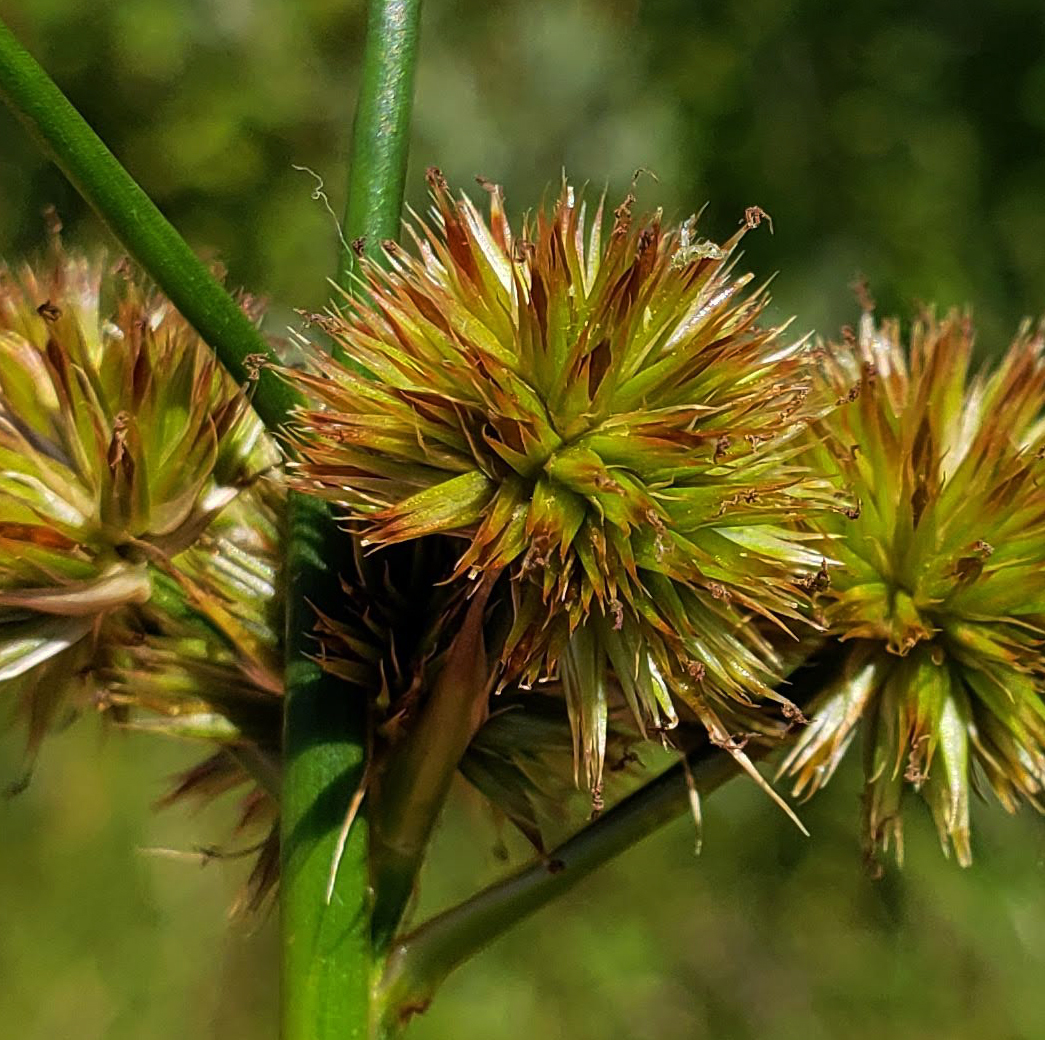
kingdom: Plantae
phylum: Tracheophyta
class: Liliopsida
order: Poales
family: Juncaceae
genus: Juncus
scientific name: Juncus torreyi
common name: Torrey's rush
